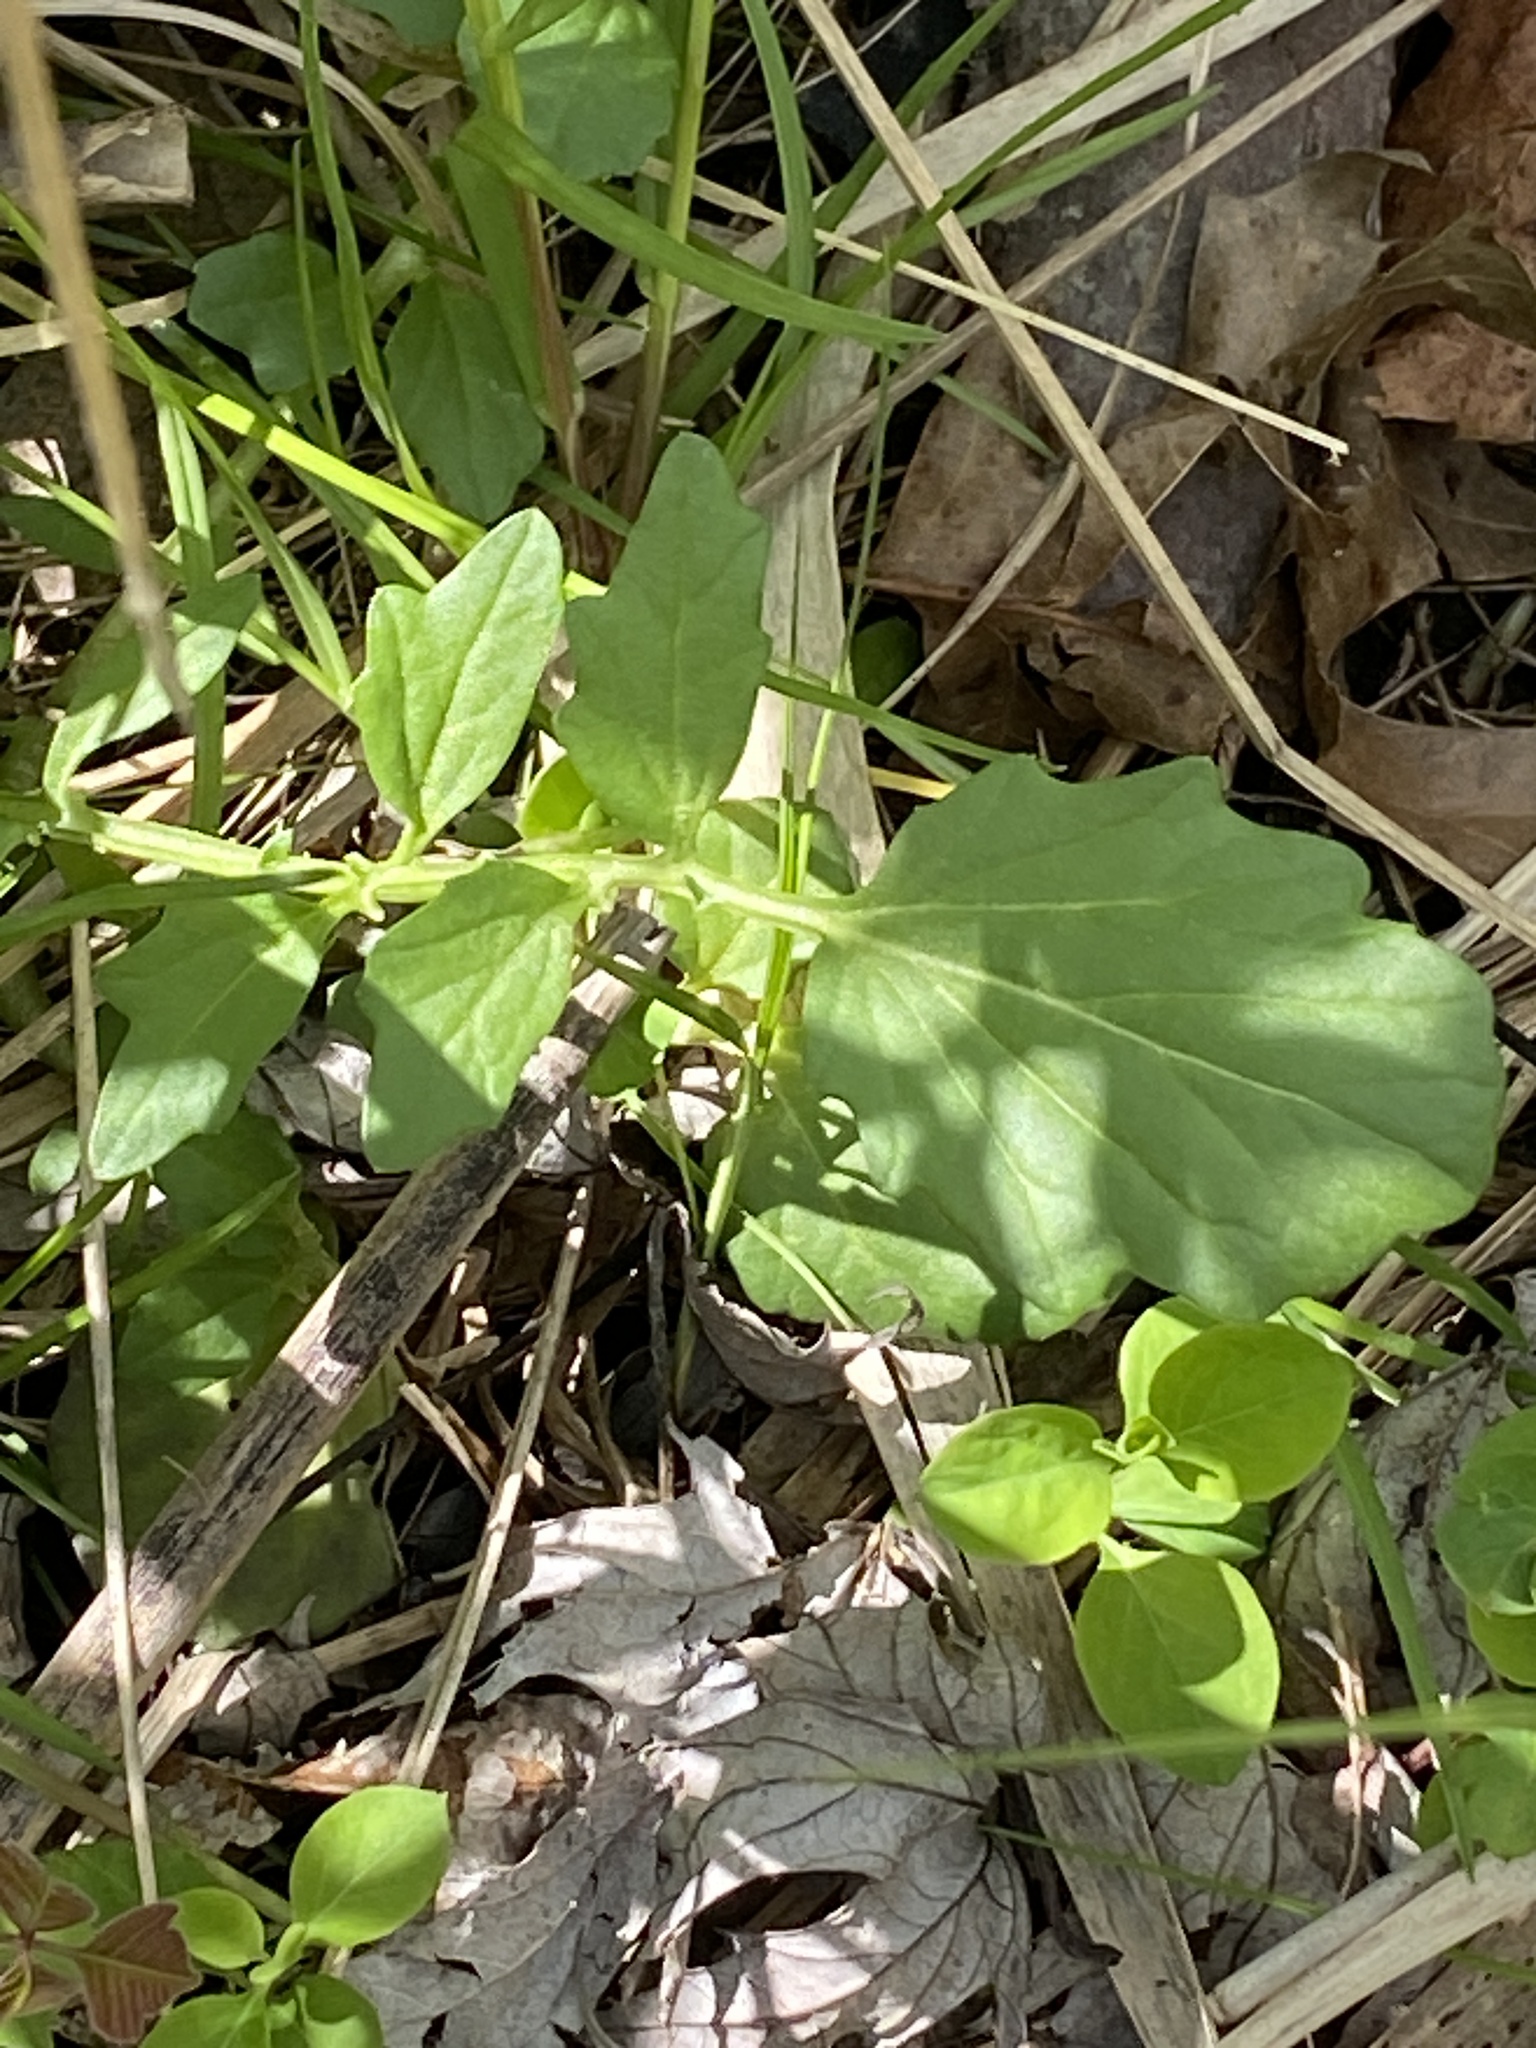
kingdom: Plantae
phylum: Tracheophyta
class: Magnoliopsida
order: Brassicales
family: Brassicaceae
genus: Barbarea
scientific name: Barbarea vulgaris
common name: Cressy-greens
